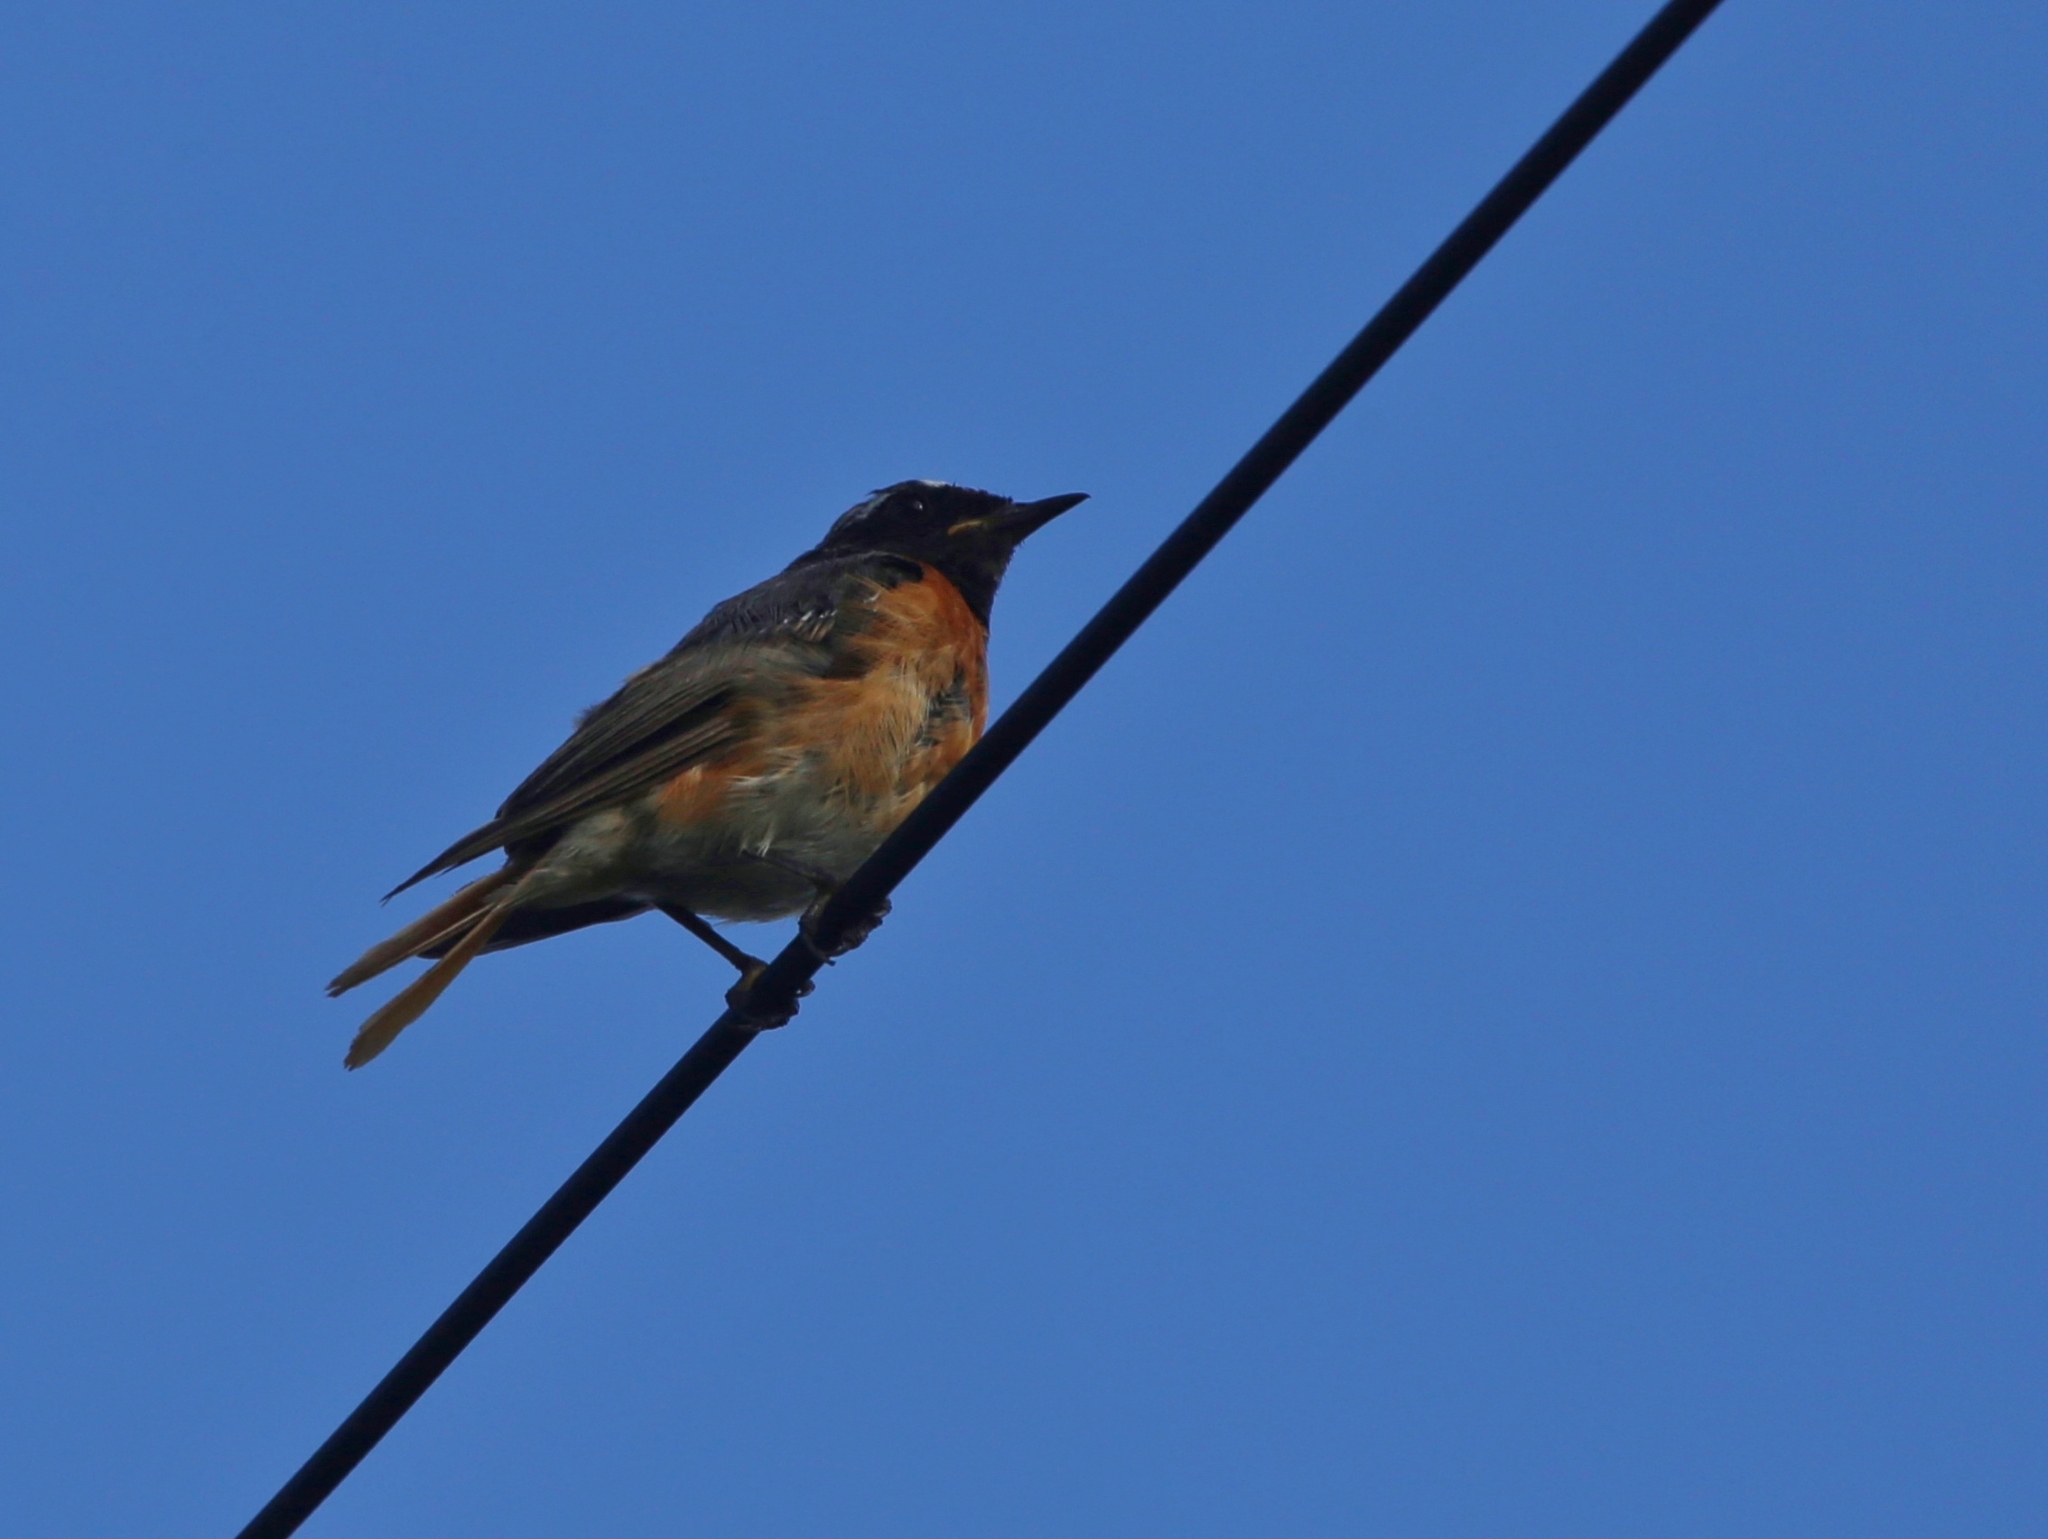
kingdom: Animalia
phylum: Chordata
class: Aves
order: Passeriformes
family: Muscicapidae
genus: Phoenicurus
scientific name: Phoenicurus phoenicurus
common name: Common redstart
